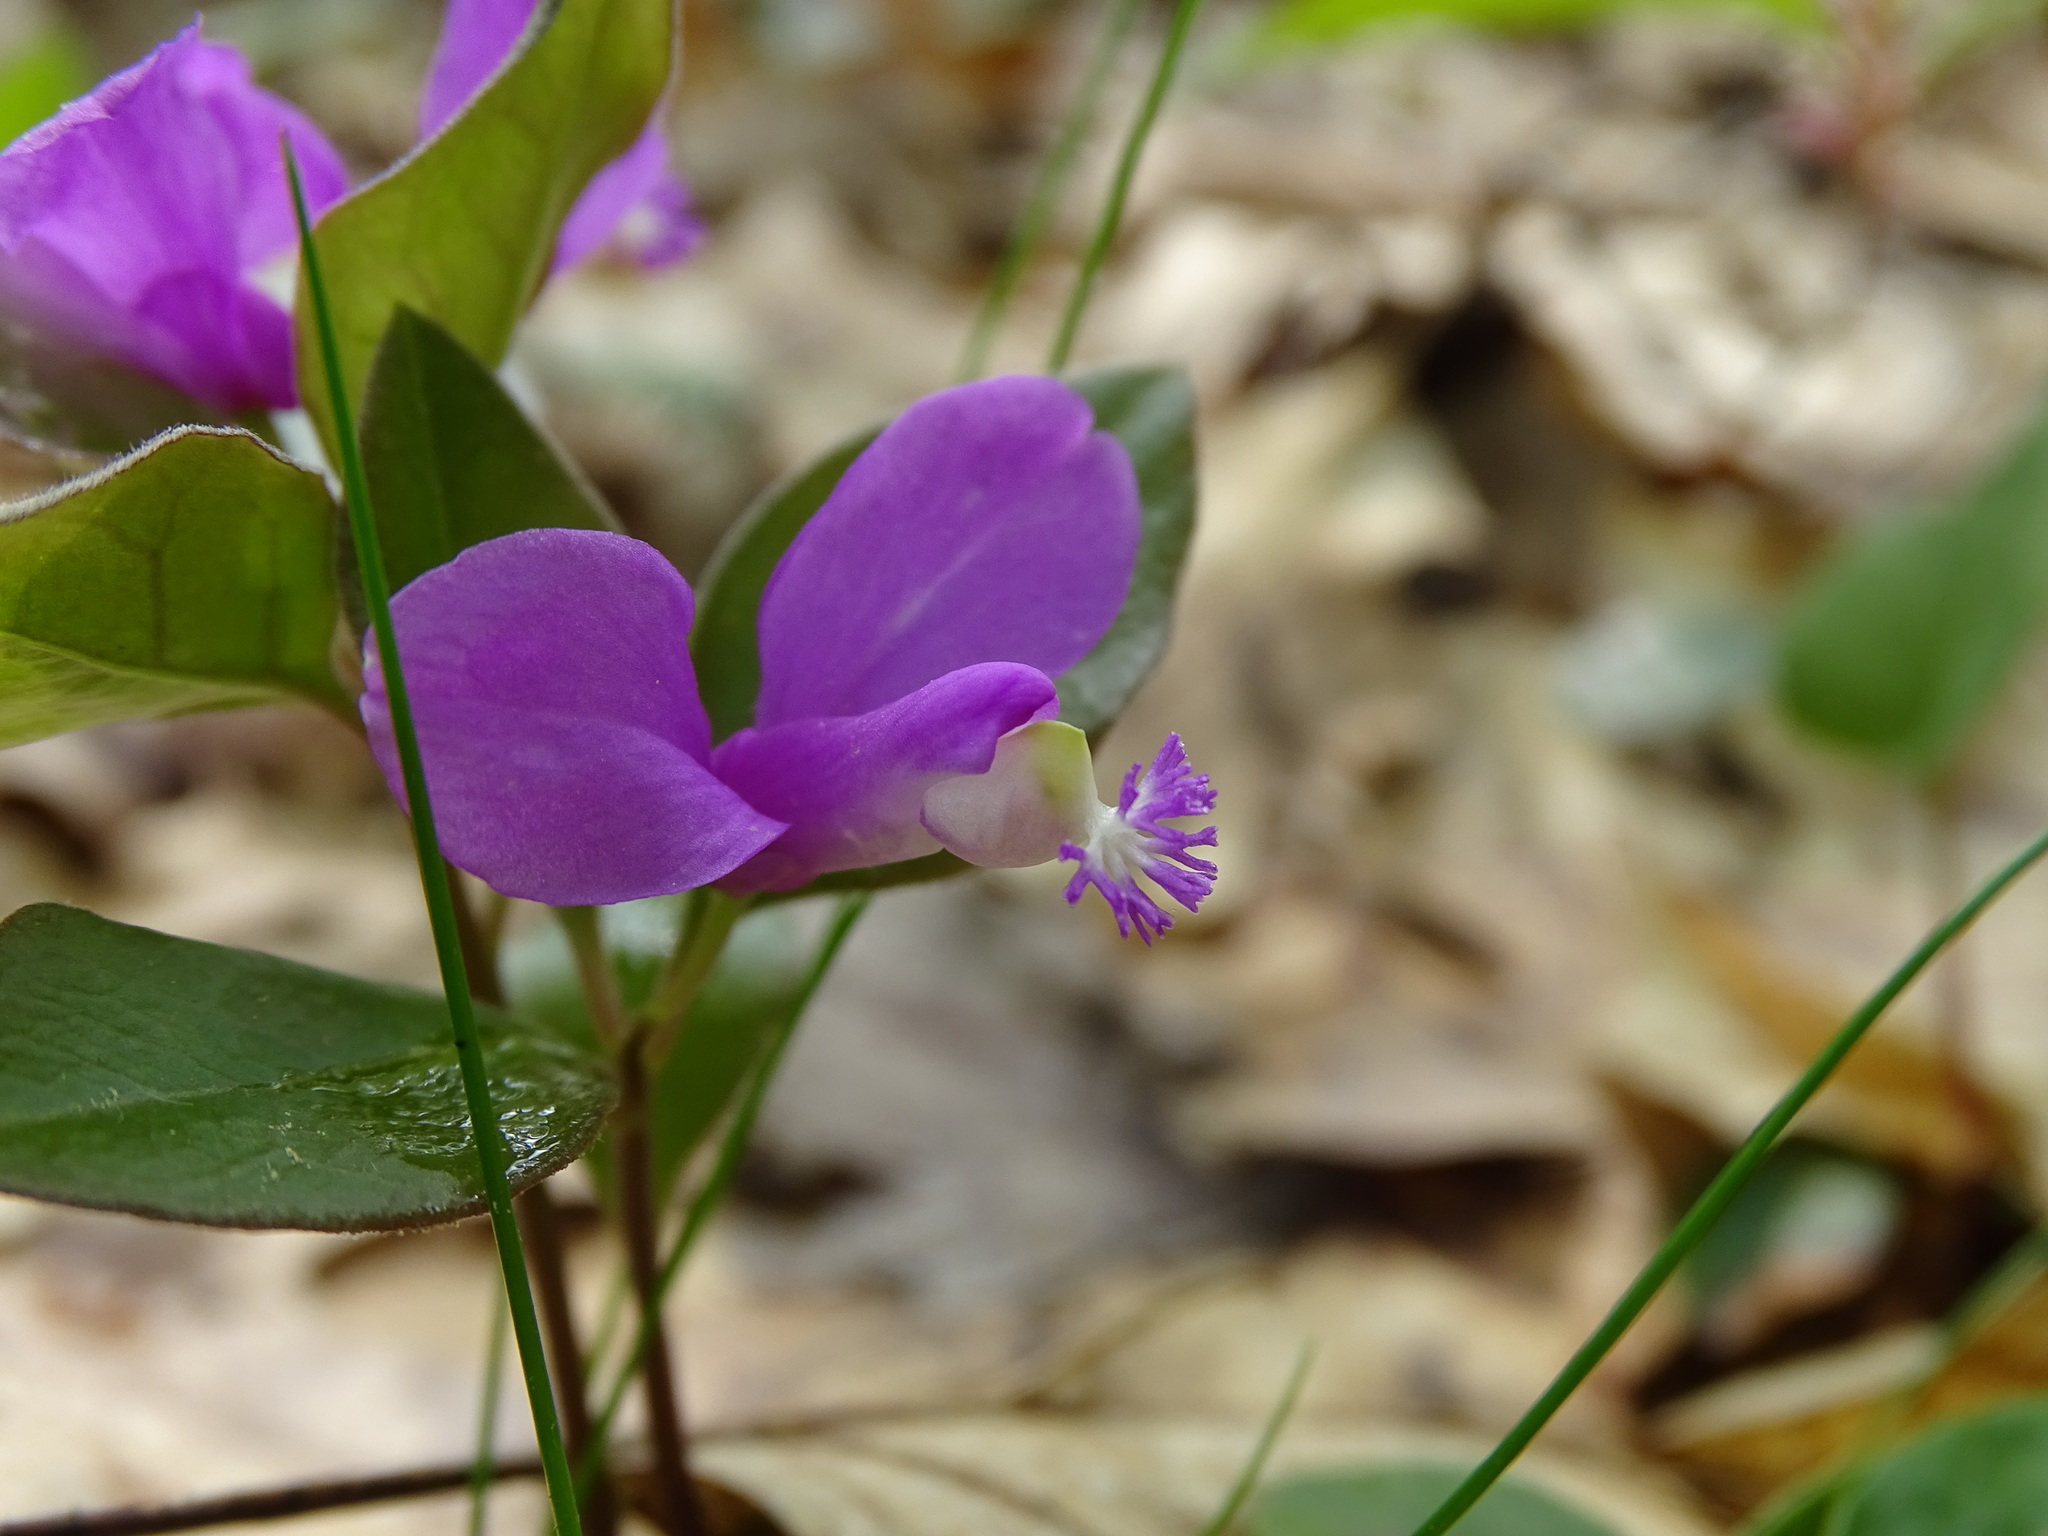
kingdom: Plantae
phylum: Tracheophyta
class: Magnoliopsida
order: Fabales
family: Polygalaceae
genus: Polygaloides
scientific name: Polygaloides paucifolia
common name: Bird-on-the-wing
